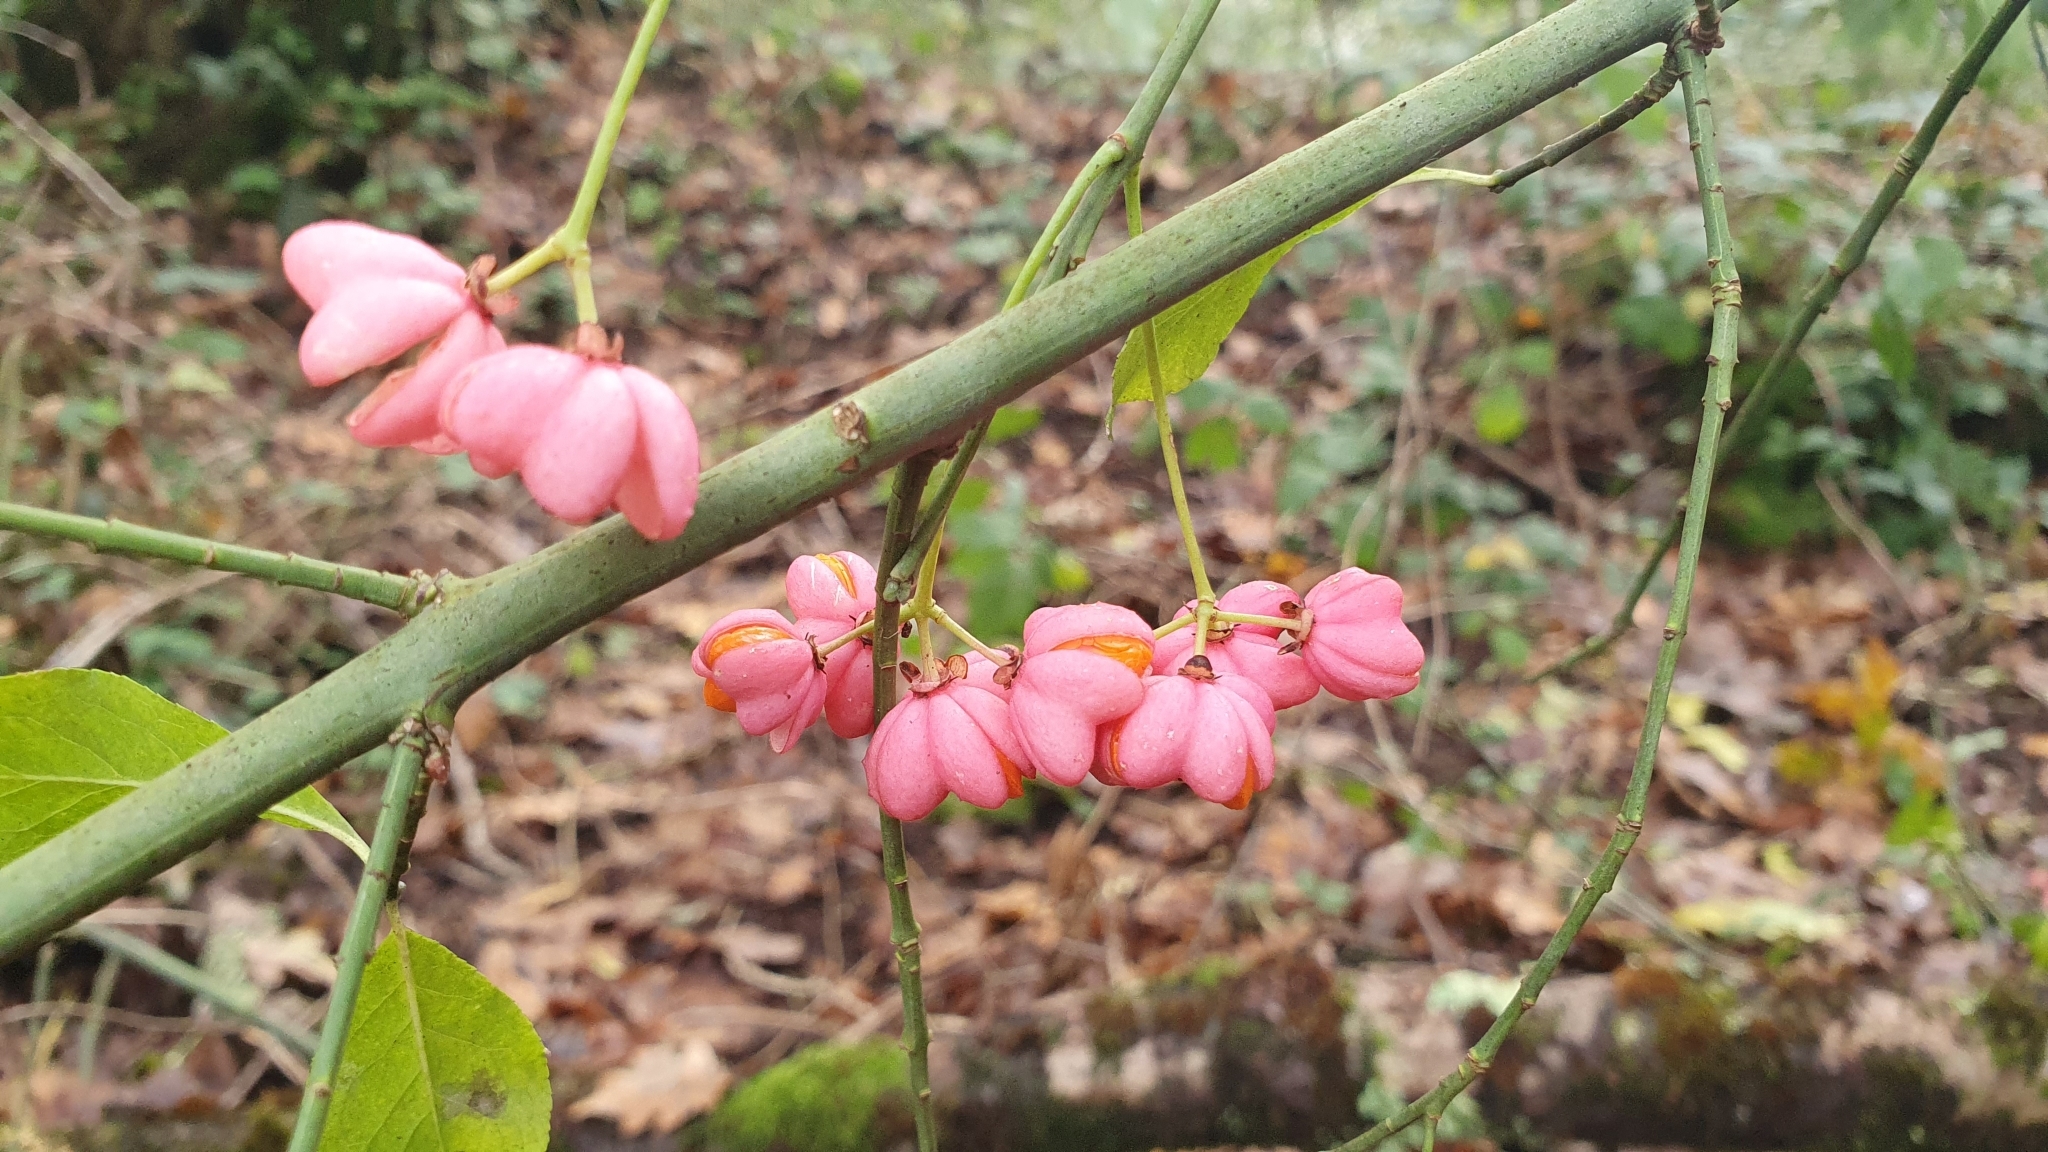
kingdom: Plantae
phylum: Tracheophyta
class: Magnoliopsida
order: Celastrales
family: Celastraceae
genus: Euonymus
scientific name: Euonymus europaeus
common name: Spindle
